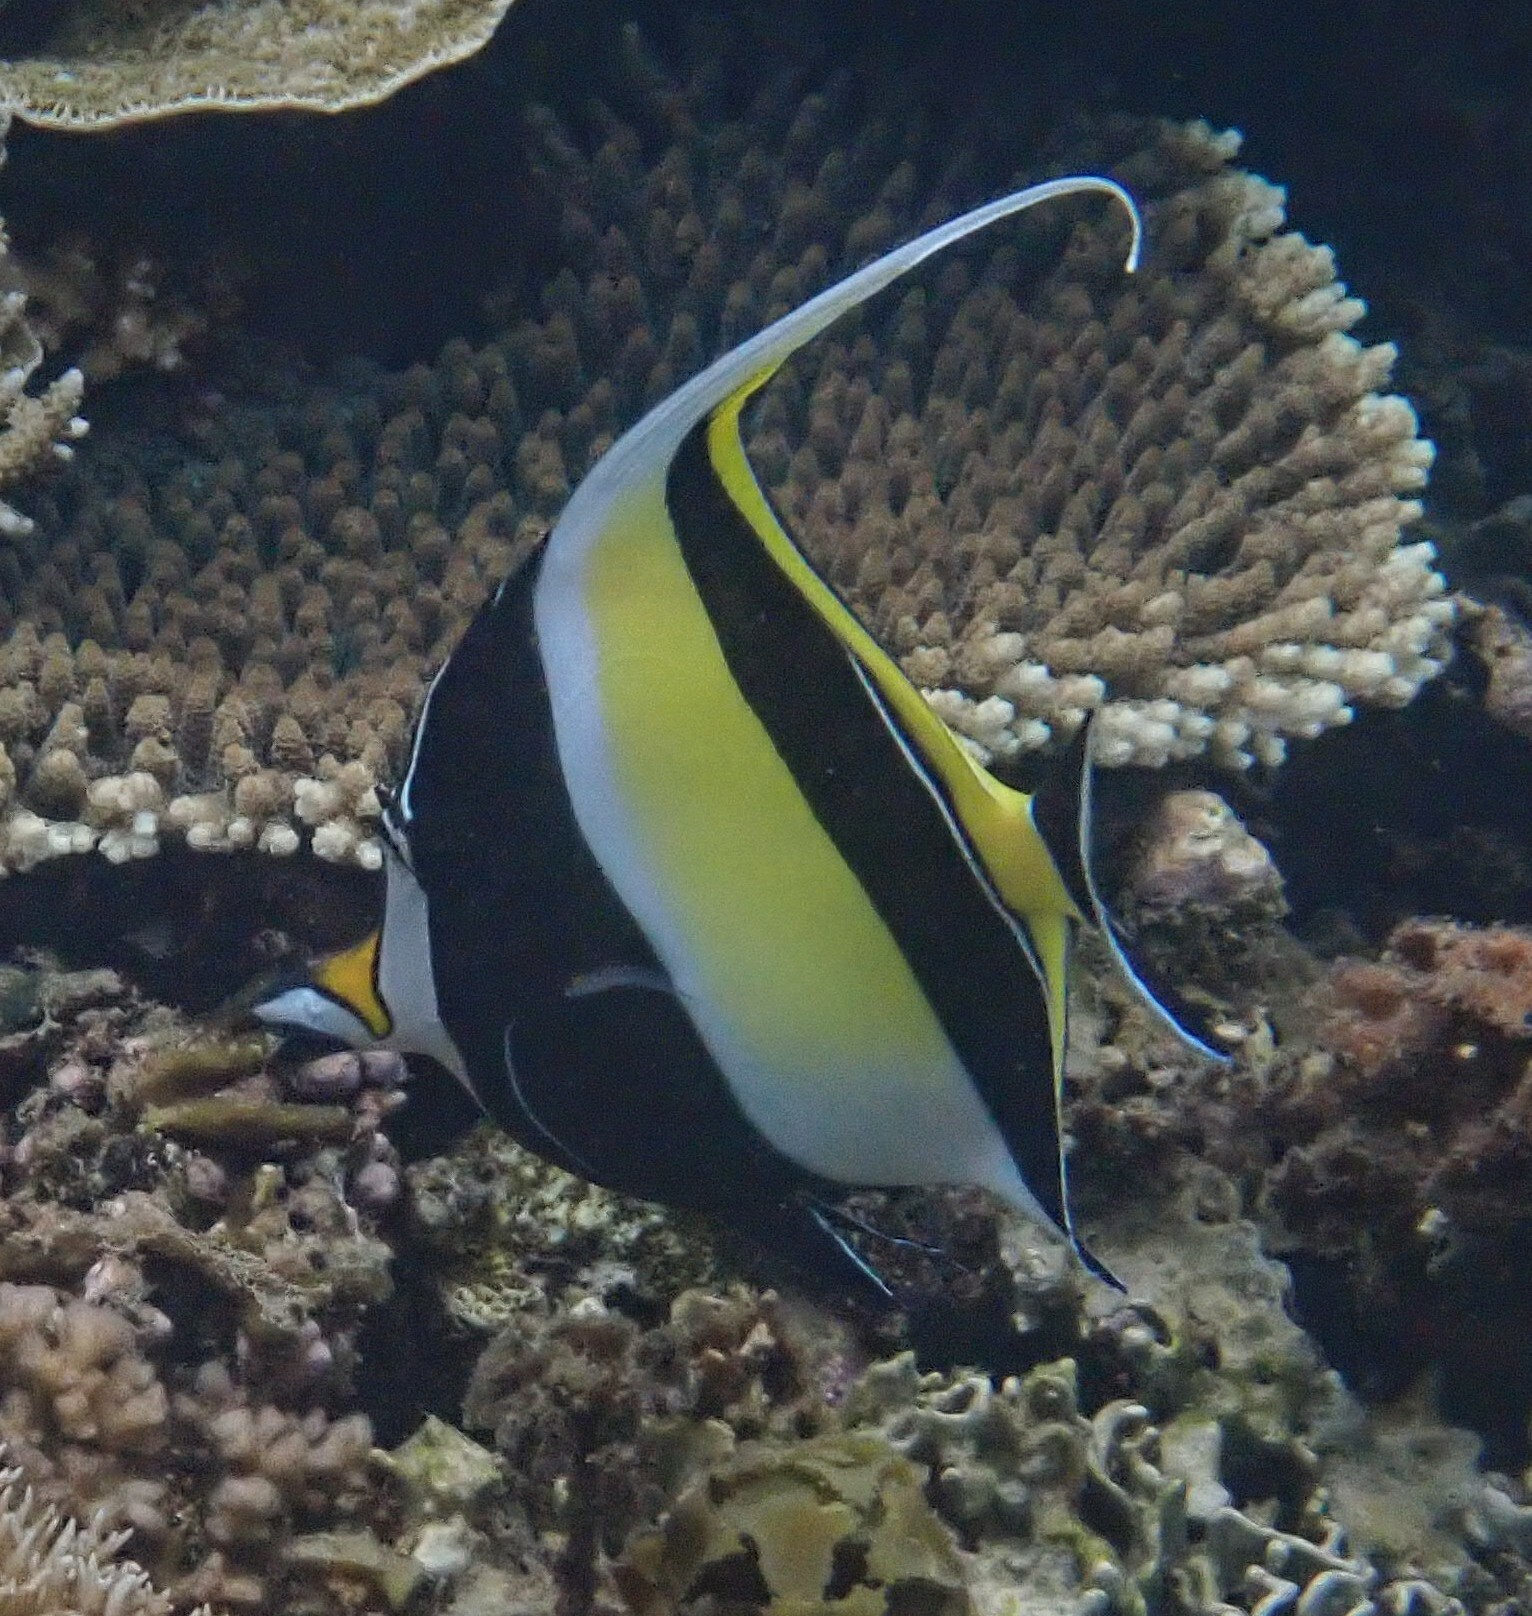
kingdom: Animalia
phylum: Chordata
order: Perciformes
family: Zanclidae
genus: Zanclus
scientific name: Zanclus cornutus
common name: Moorish idol
